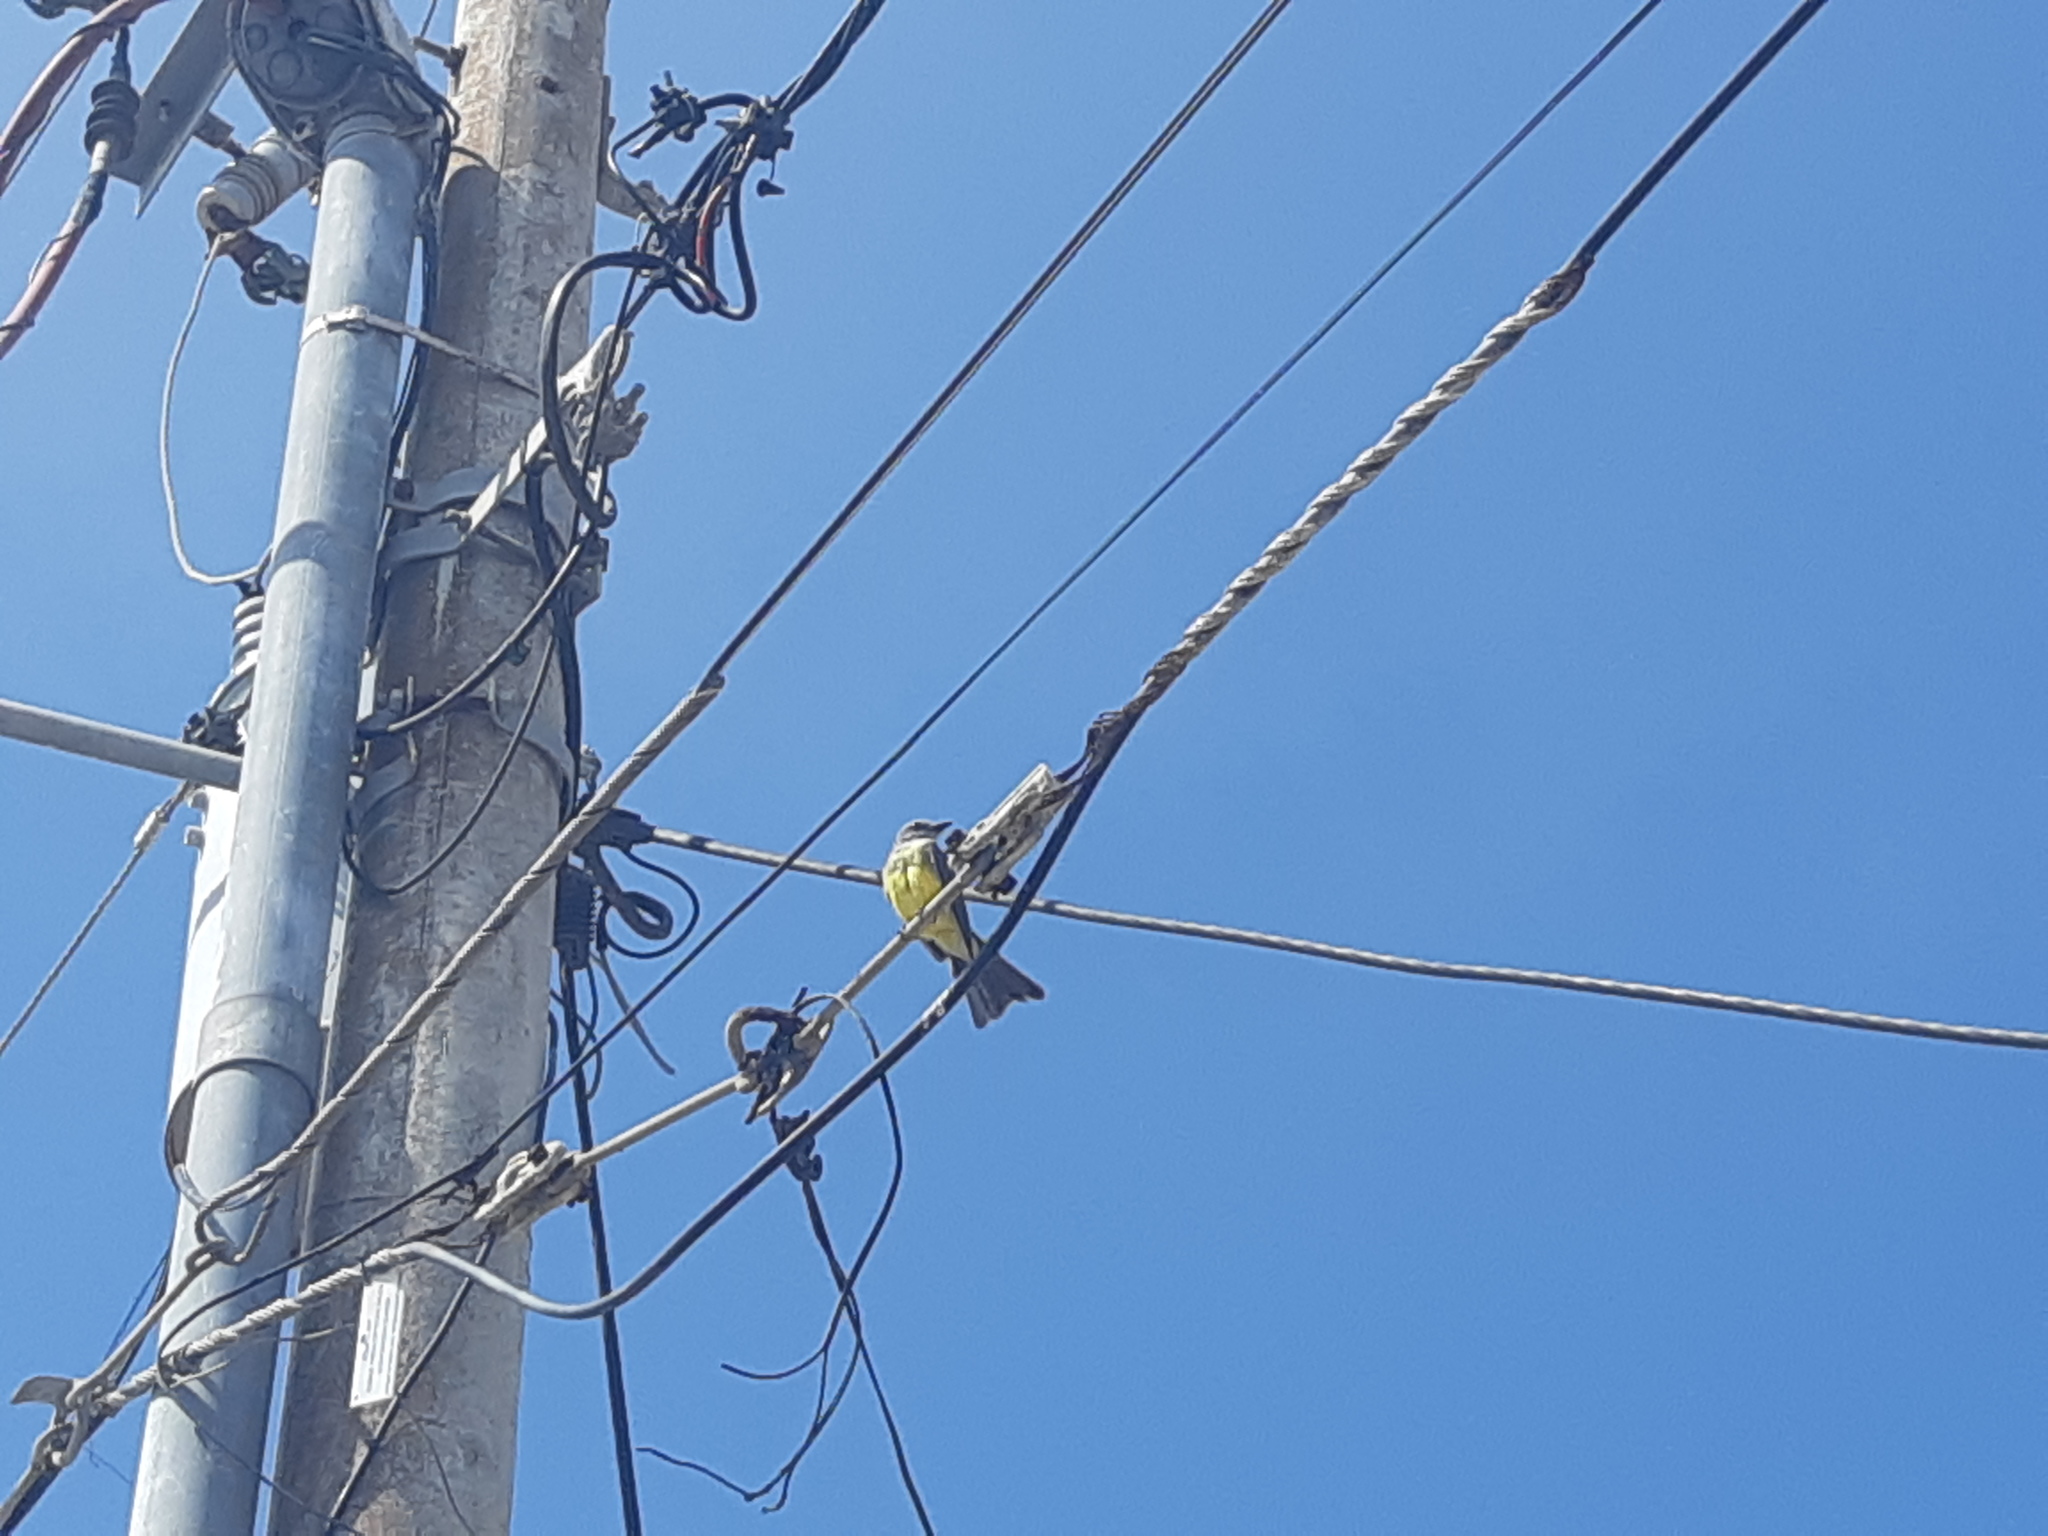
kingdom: Animalia
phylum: Chordata
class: Aves
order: Passeriformes
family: Tyrannidae
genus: Tyrannus
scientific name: Tyrannus melancholicus
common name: Tropical kingbird
